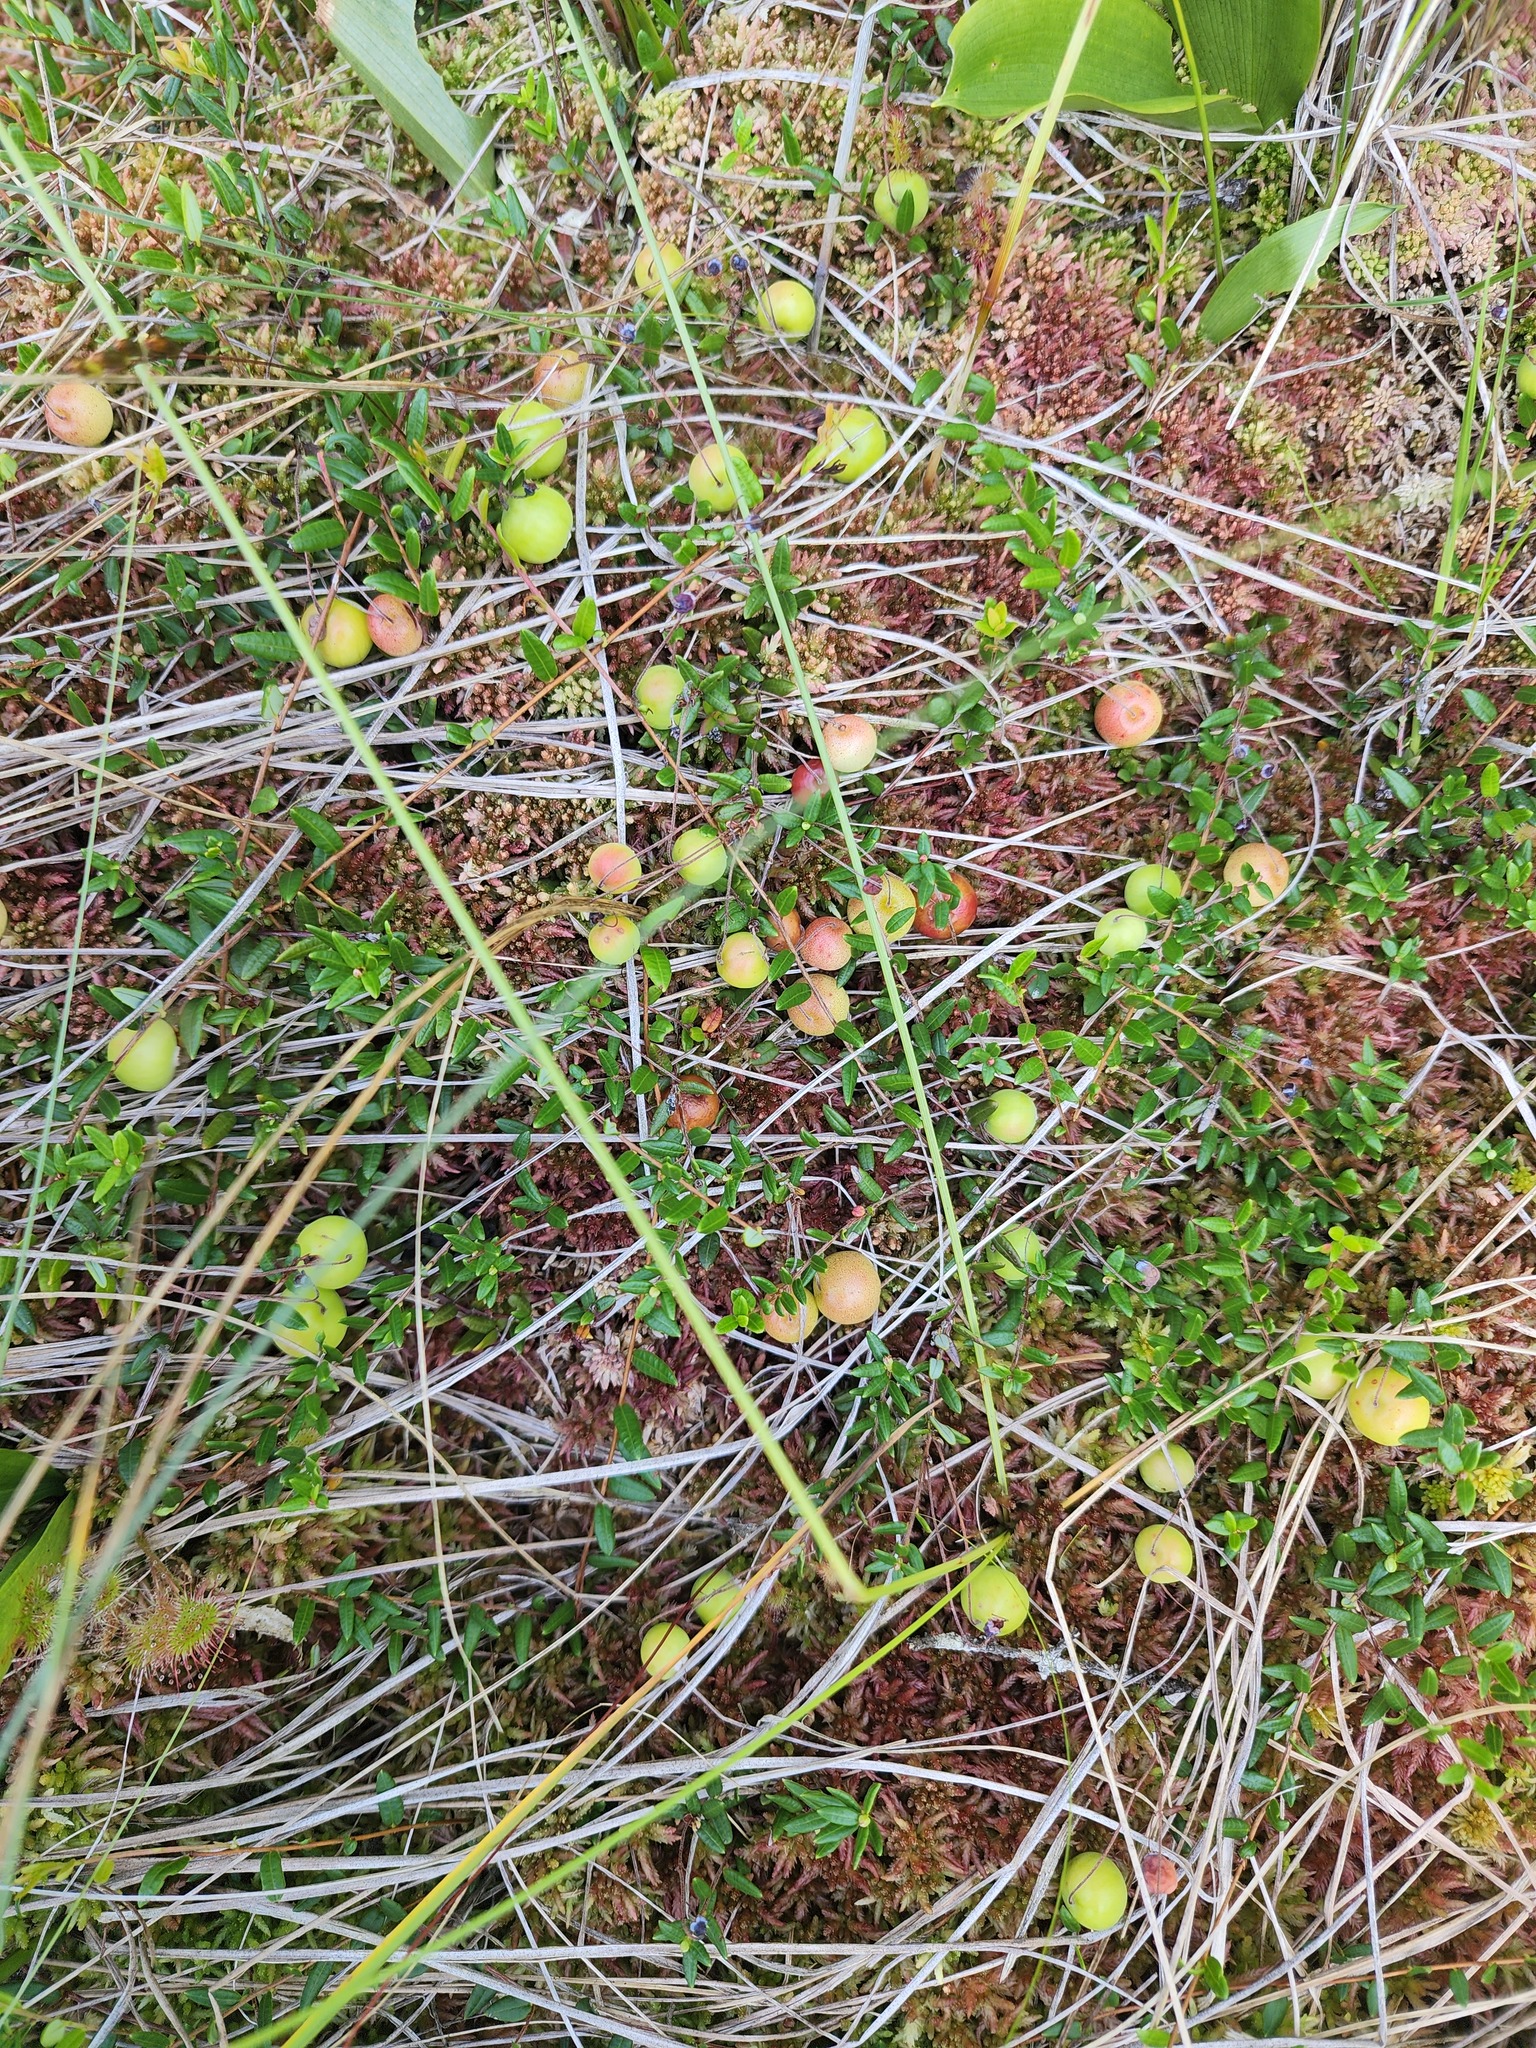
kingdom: Plantae
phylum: Tracheophyta
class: Magnoliopsida
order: Ericales
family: Ericaceae
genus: Vaccinium
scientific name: Vaccinium oxycoccos
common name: Cranberry
